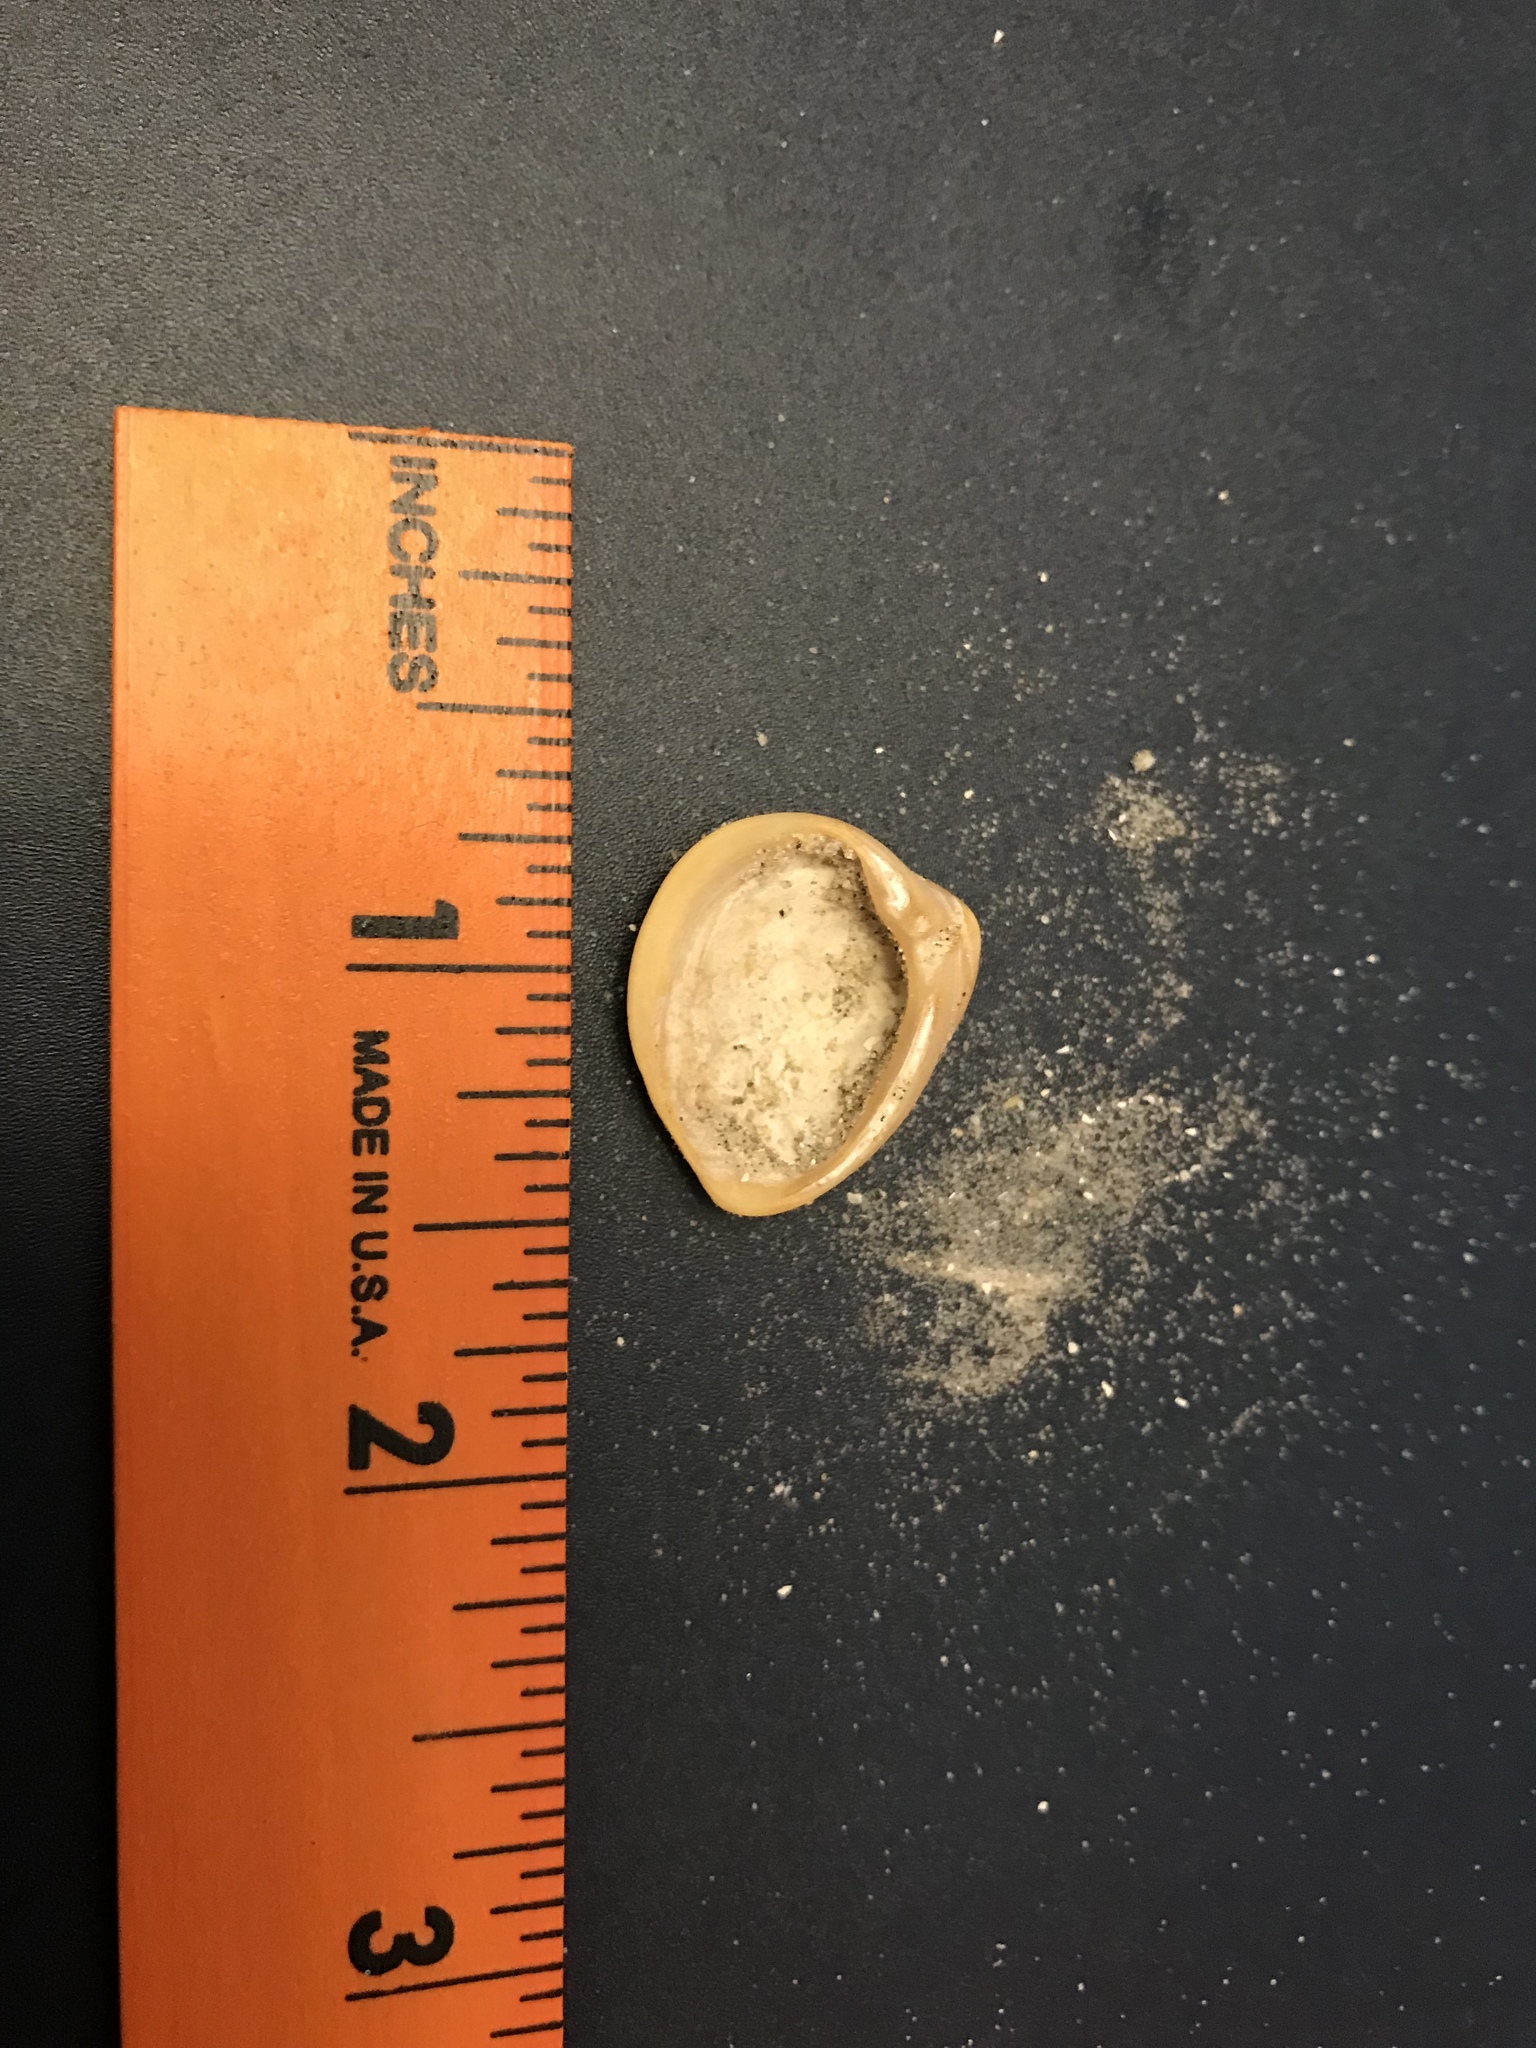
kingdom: Animalia
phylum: Mollusca
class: Bivalvia
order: Venerida
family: Mactridae
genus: Rangia
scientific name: Rangia cuneata
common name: Atlantic rangia
